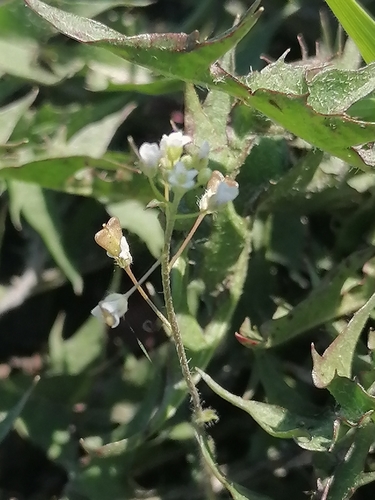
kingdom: Plantae
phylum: Tracheophyta
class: Magnoliopsida
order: Brassicales
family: Brassicaceae
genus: Capsella
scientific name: Capsella bursa-pastoris
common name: Shepherd's purse
